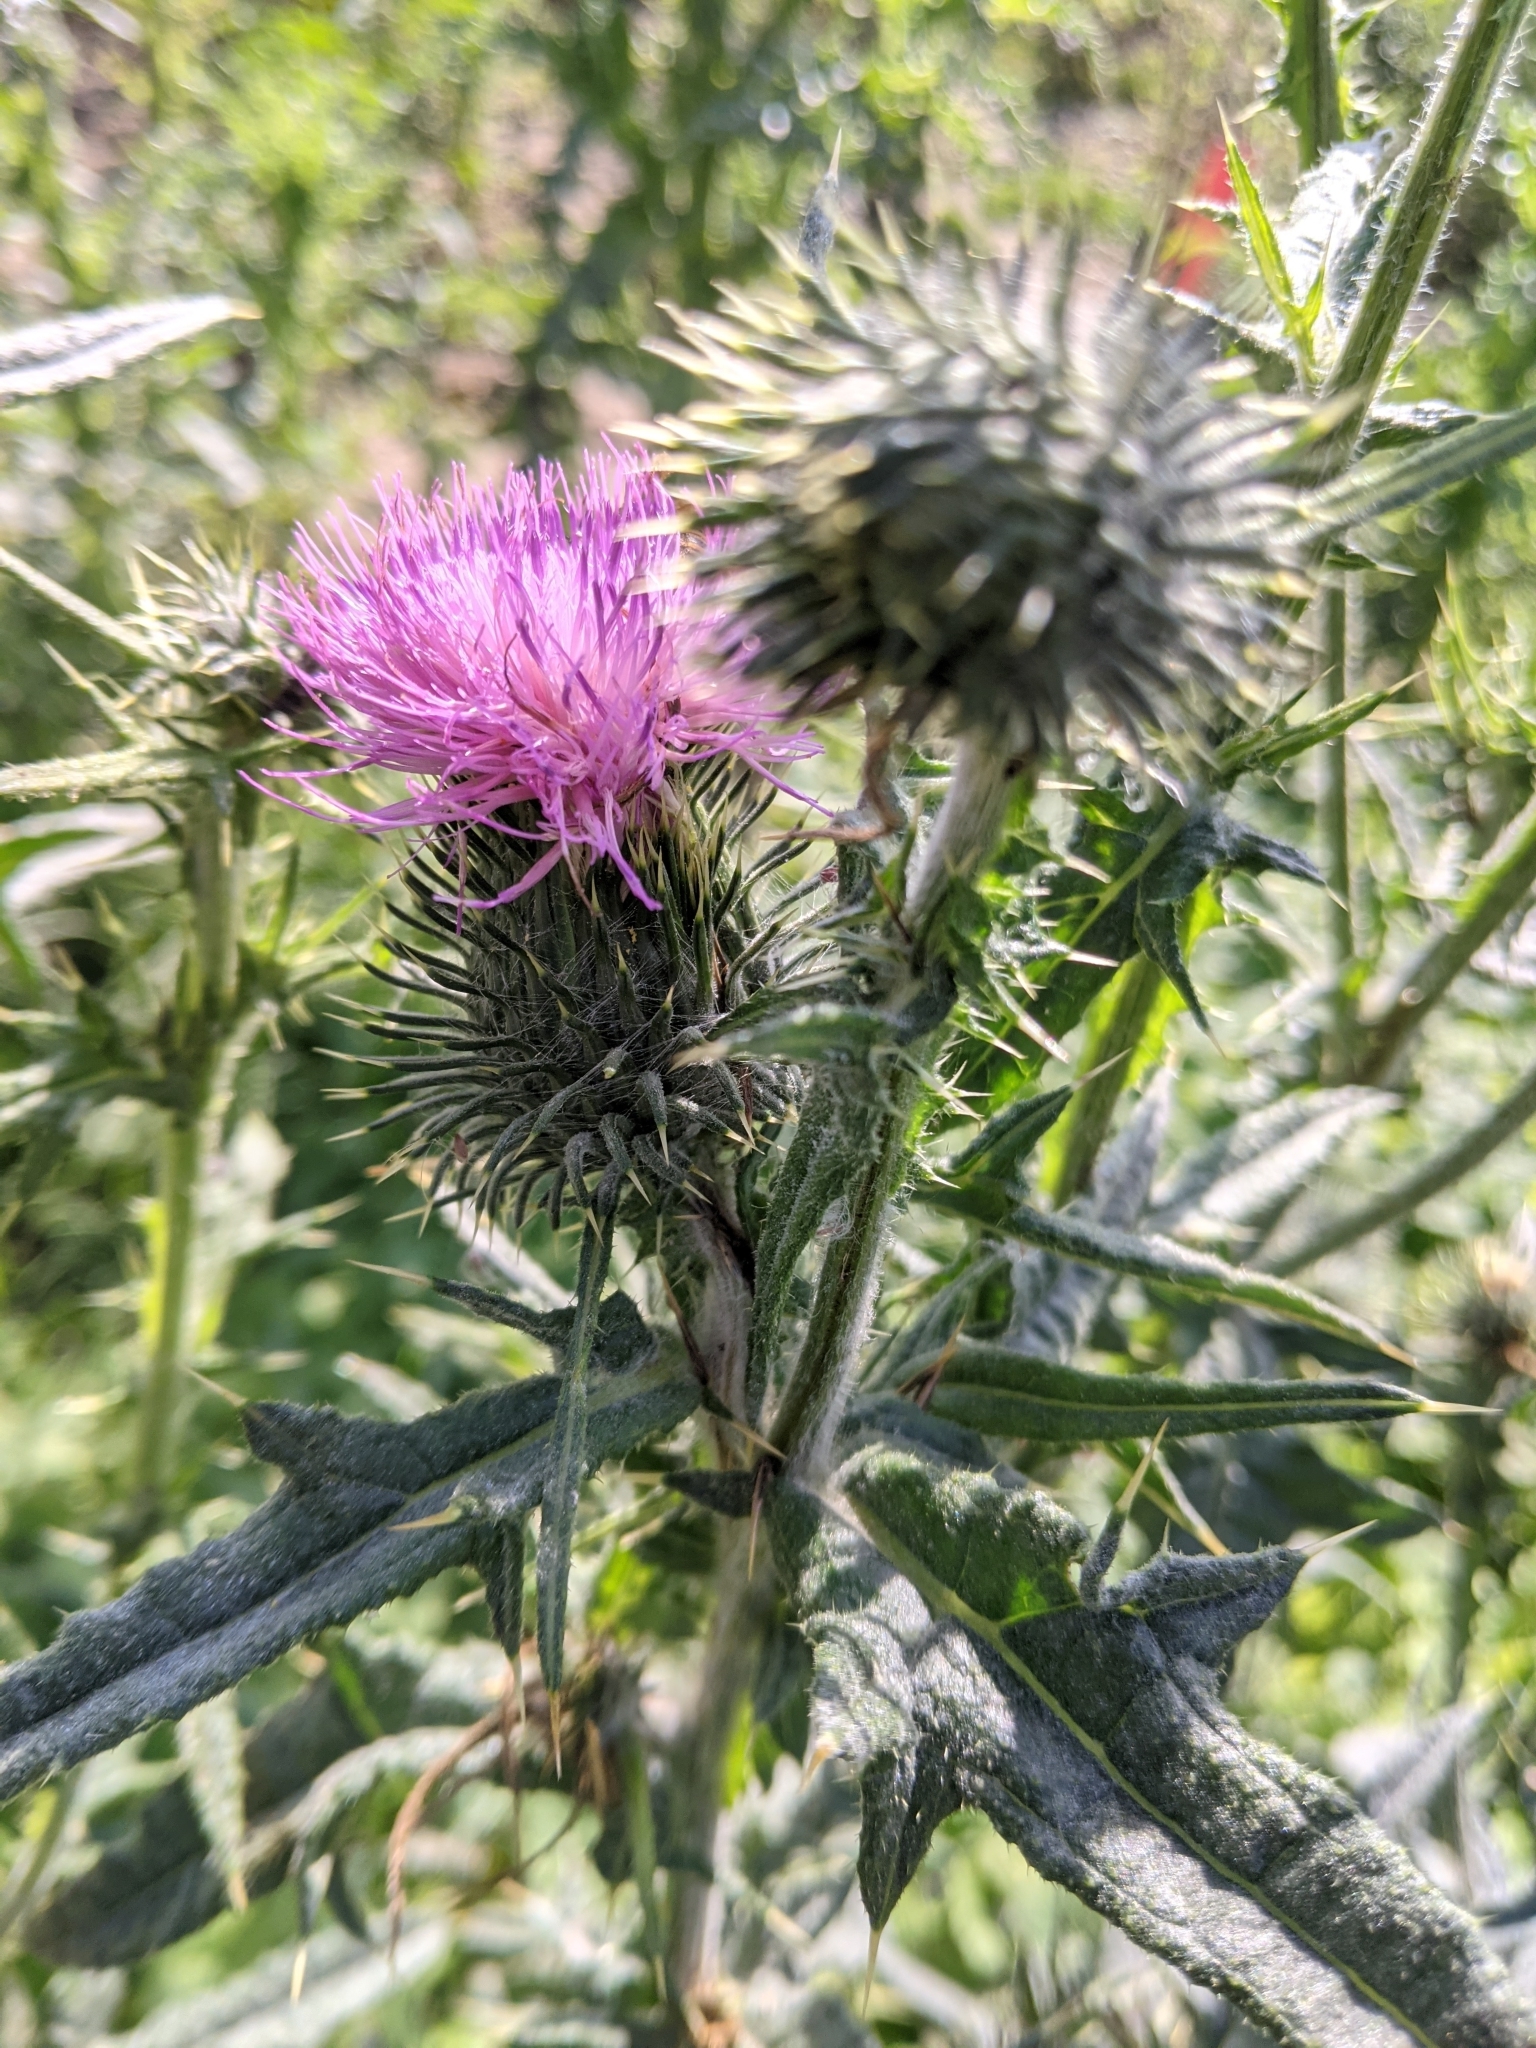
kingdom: Plantae
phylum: Tracheophyta
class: Magnoliopsida
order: Asterales
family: Asteraceae
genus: Cirsium
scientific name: Cirsium vulgare
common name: Bull thistle
